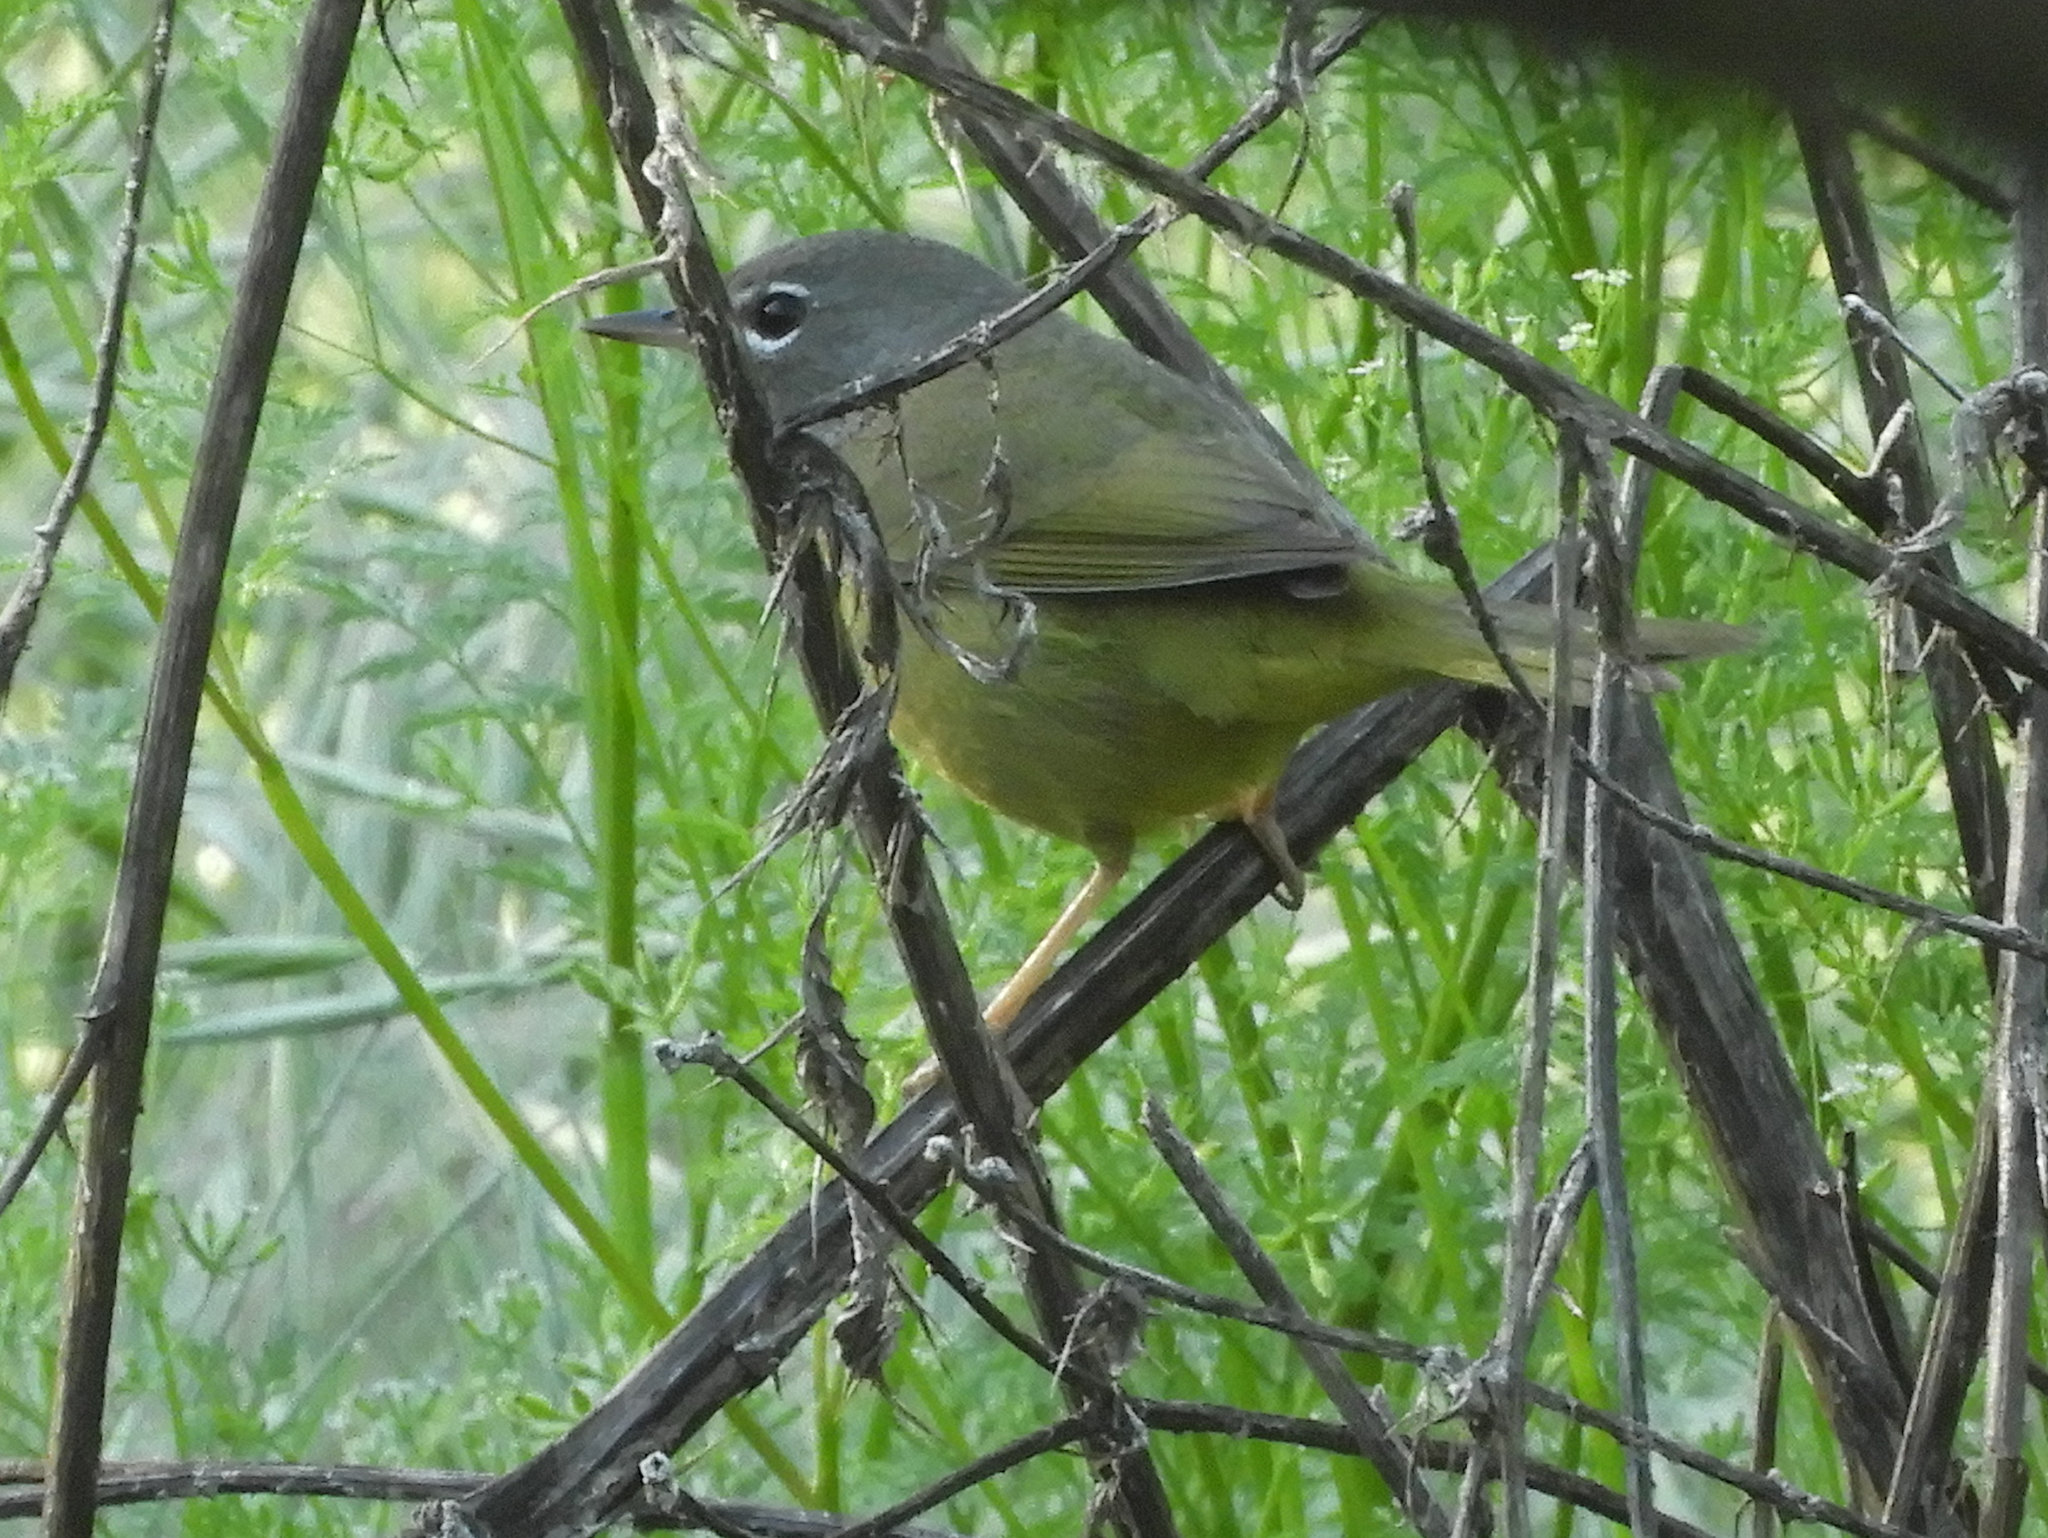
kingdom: Animalia
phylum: Chordata
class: Aves
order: Passeriformes
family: Parulidae
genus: Geothlypis
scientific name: Geothlypis tolmiei
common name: Macgillivray's warbler
